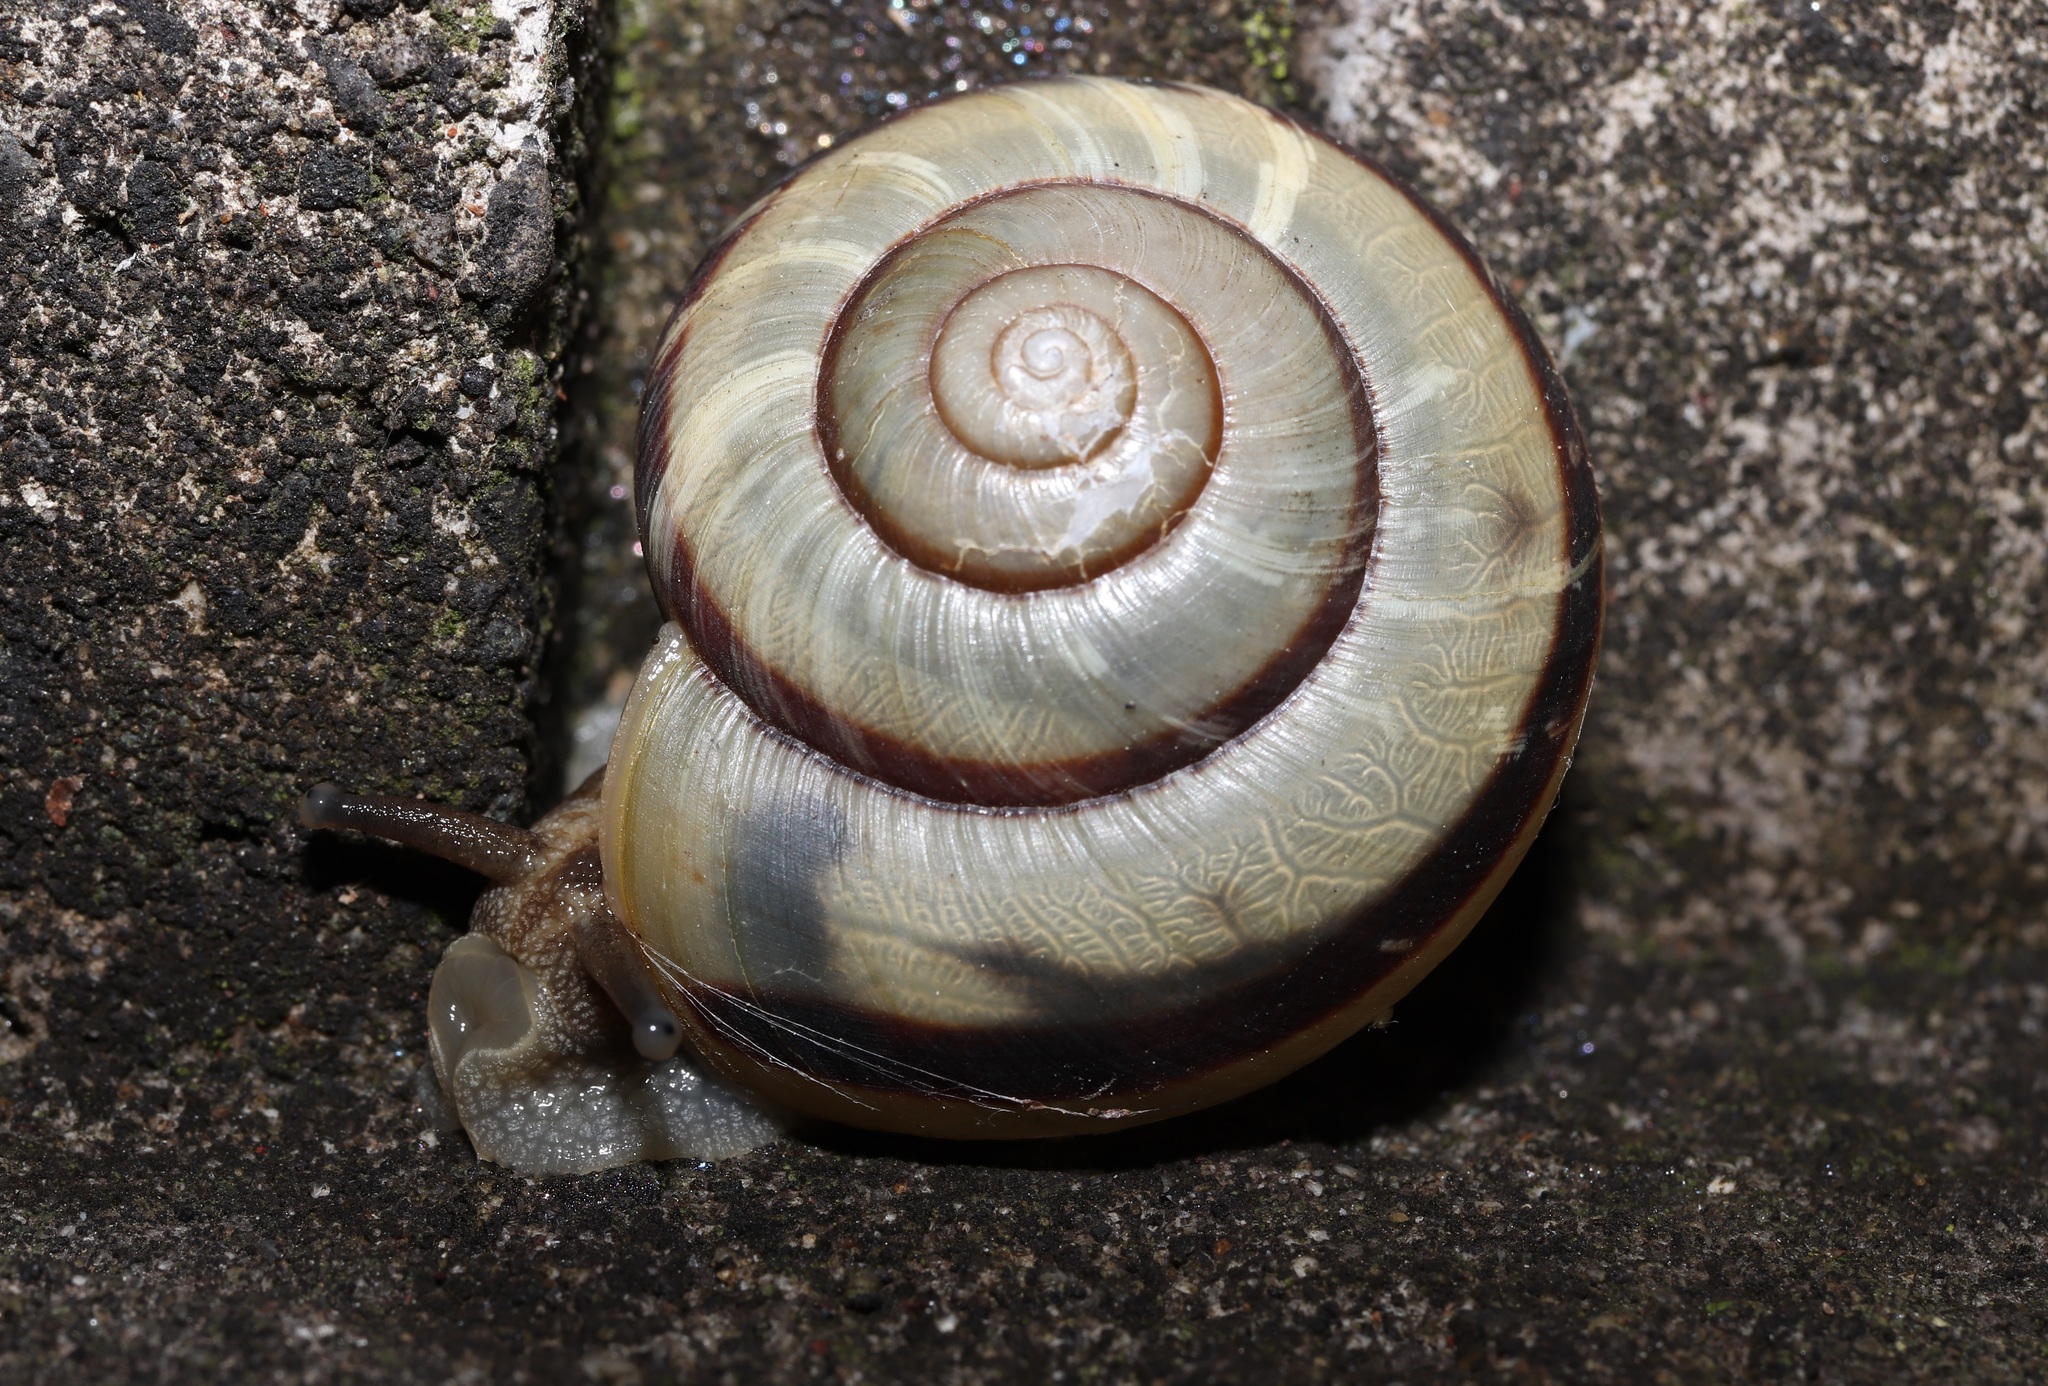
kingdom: Animalia
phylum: Mollusca
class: Gastropoda
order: Stylommatophora
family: Camaenidae
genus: Euhadra
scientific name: Euhadra peliomphala
